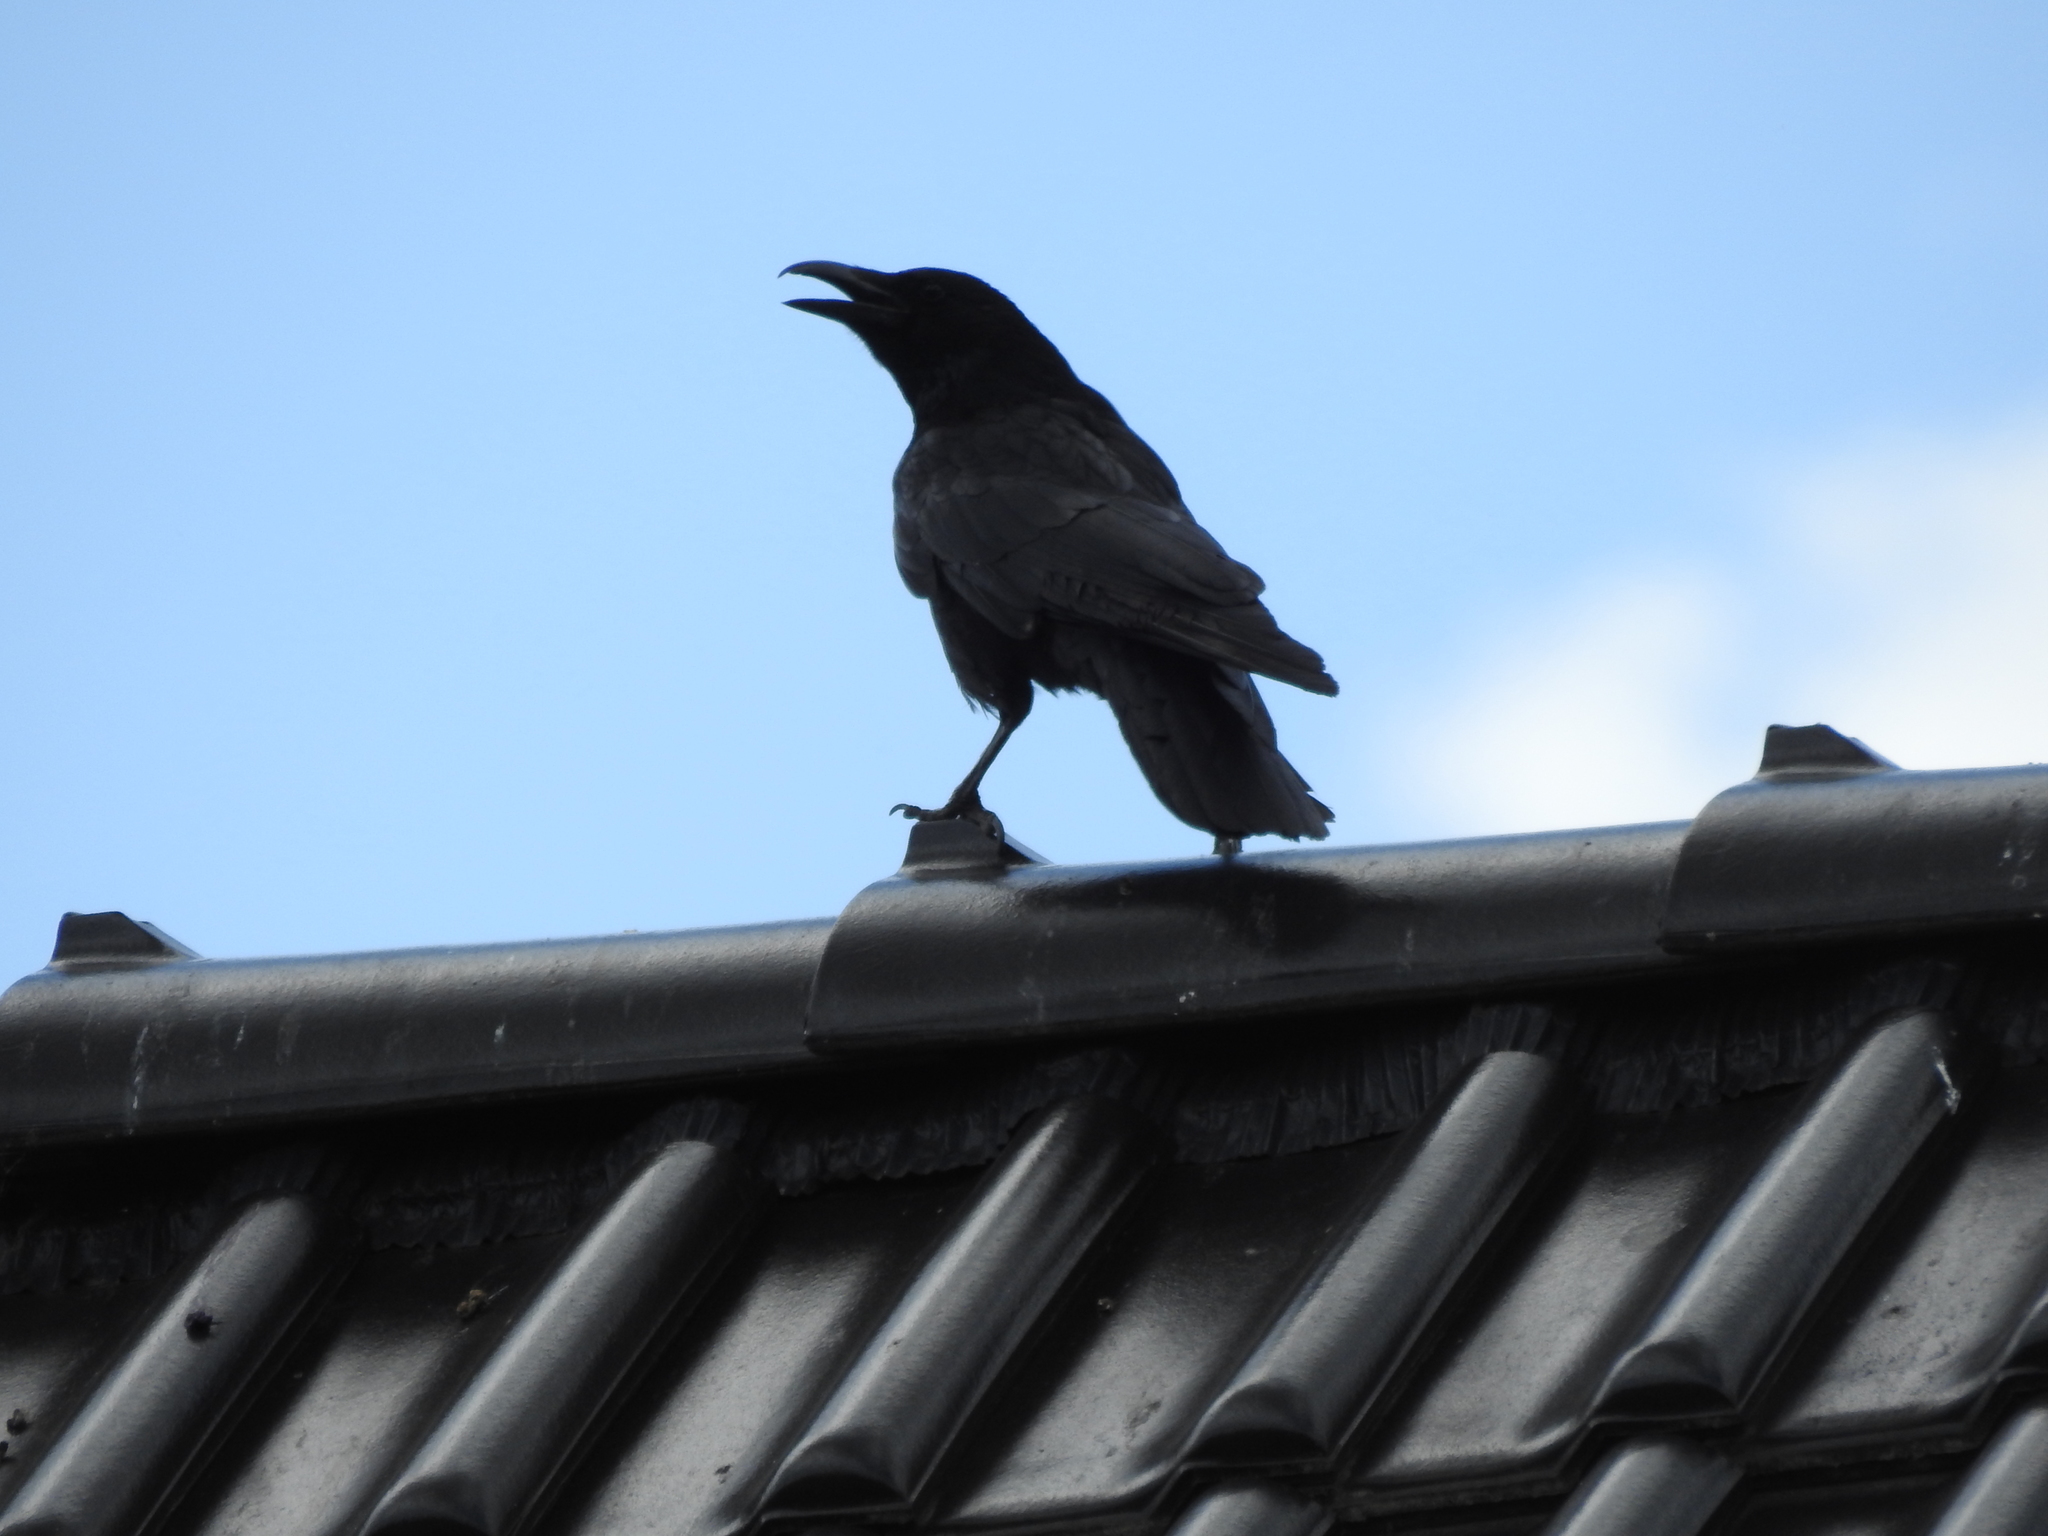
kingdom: Animalia
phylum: Chordata
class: Aves
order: Passeriformes
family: Corvidae
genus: Corvus
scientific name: Corvus corone
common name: Carrion crow
